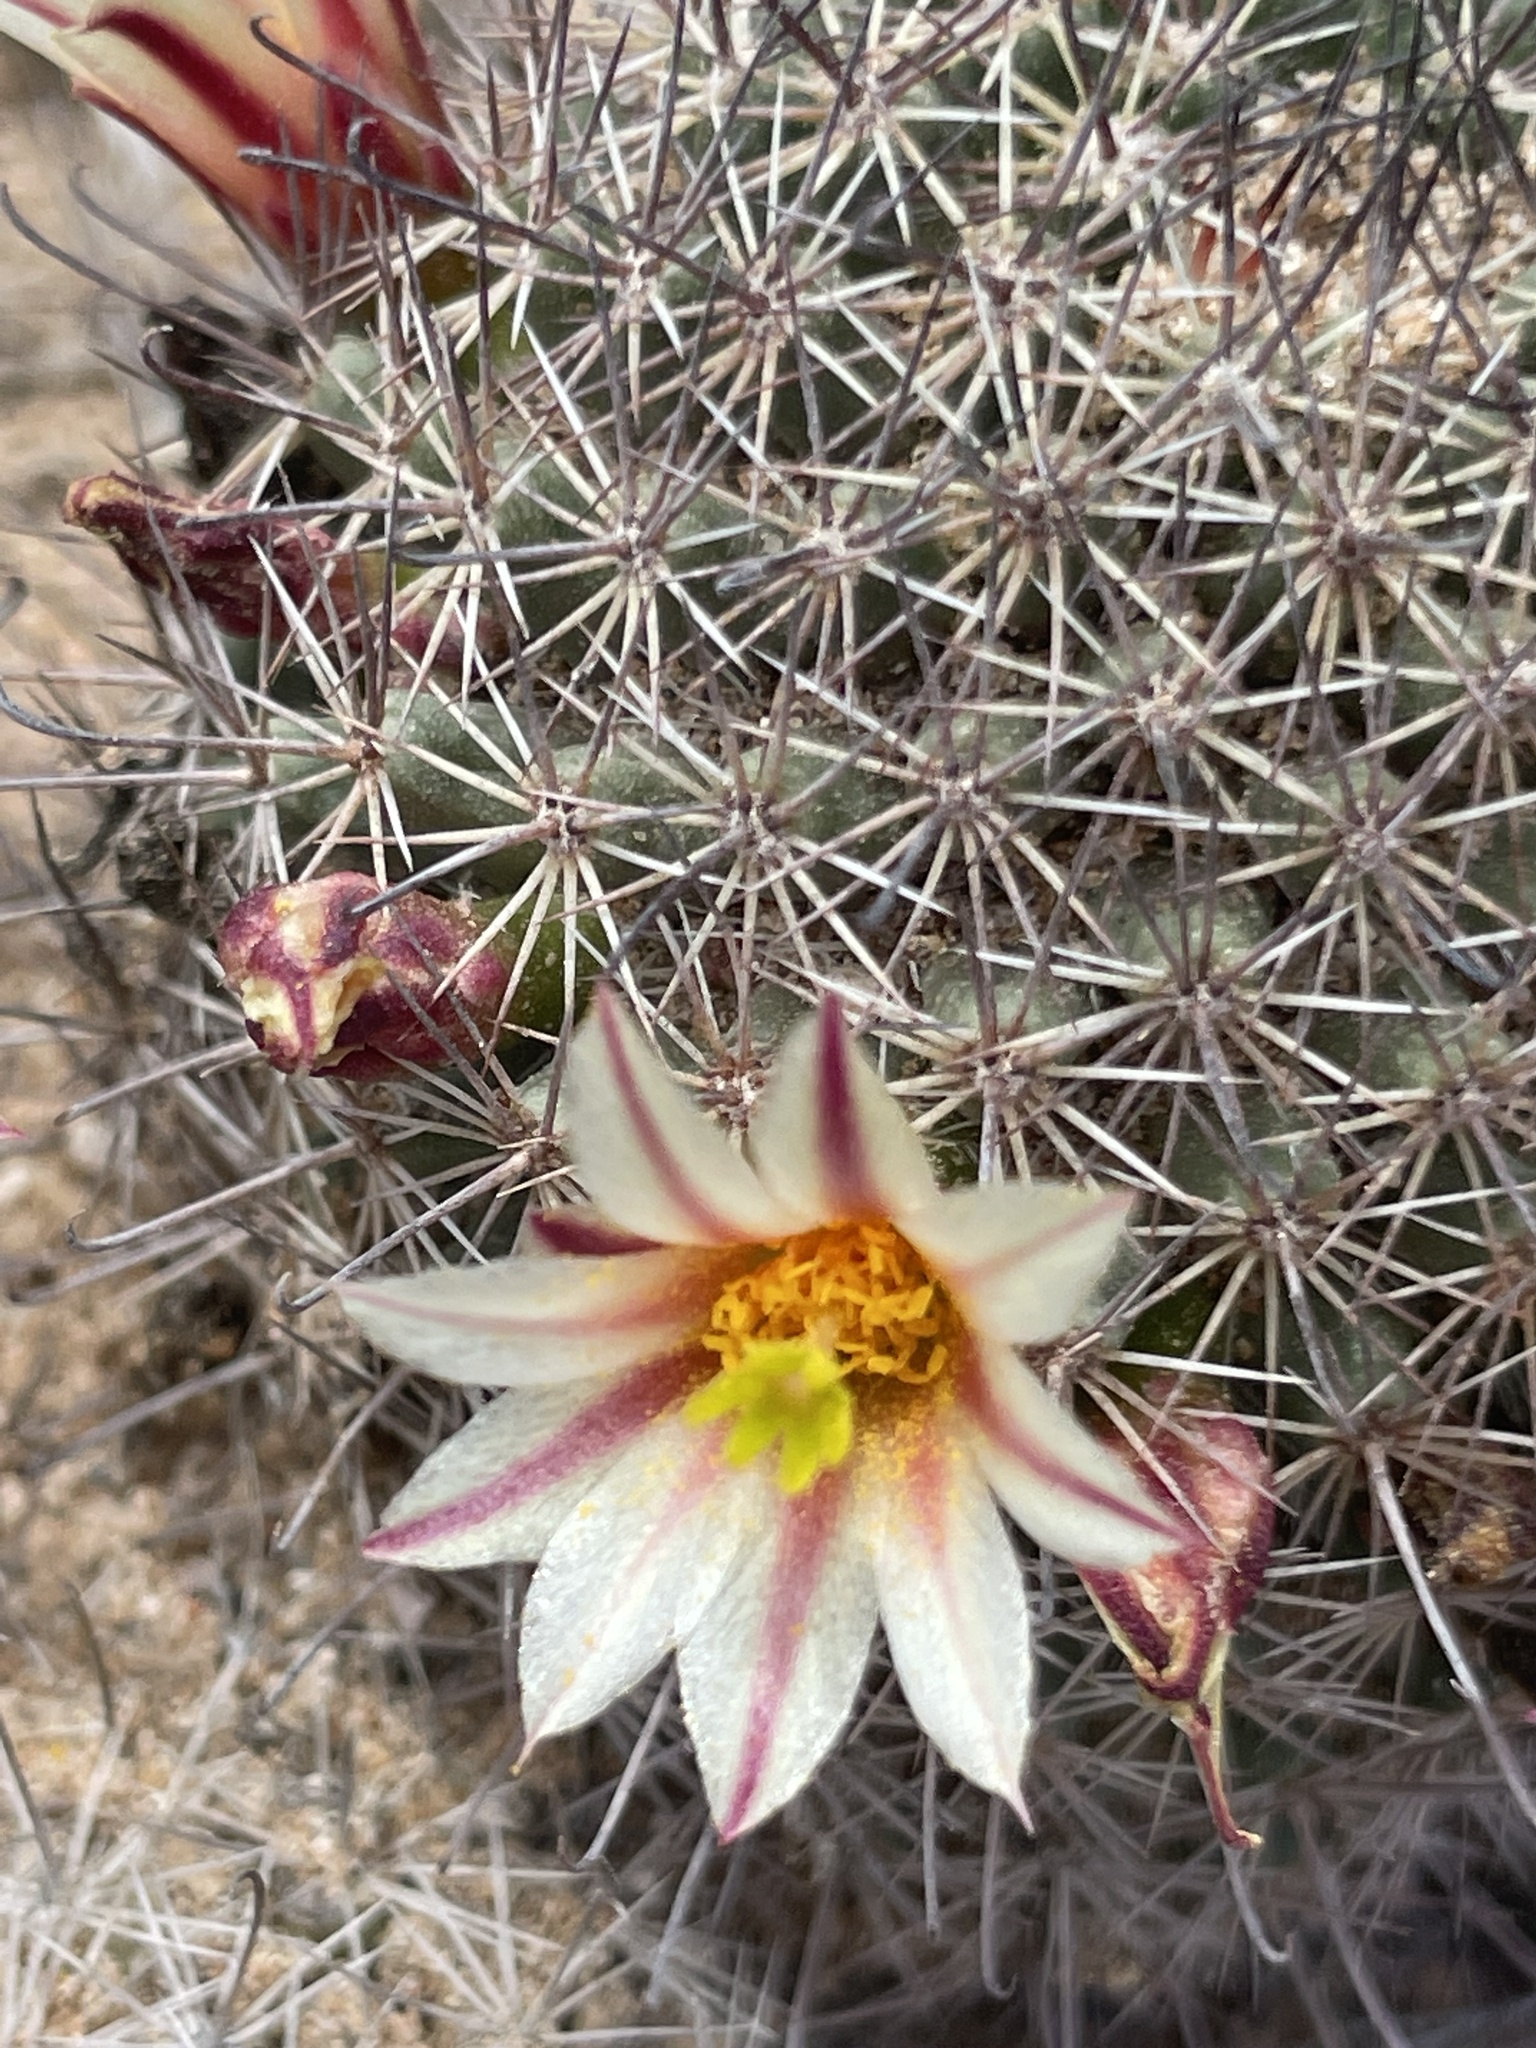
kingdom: Plantae
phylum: Tracheophyta
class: Magnoliopsida
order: Caryophyllales
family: Cactaceae
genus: Cochemiea
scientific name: Cochemiea dioica
